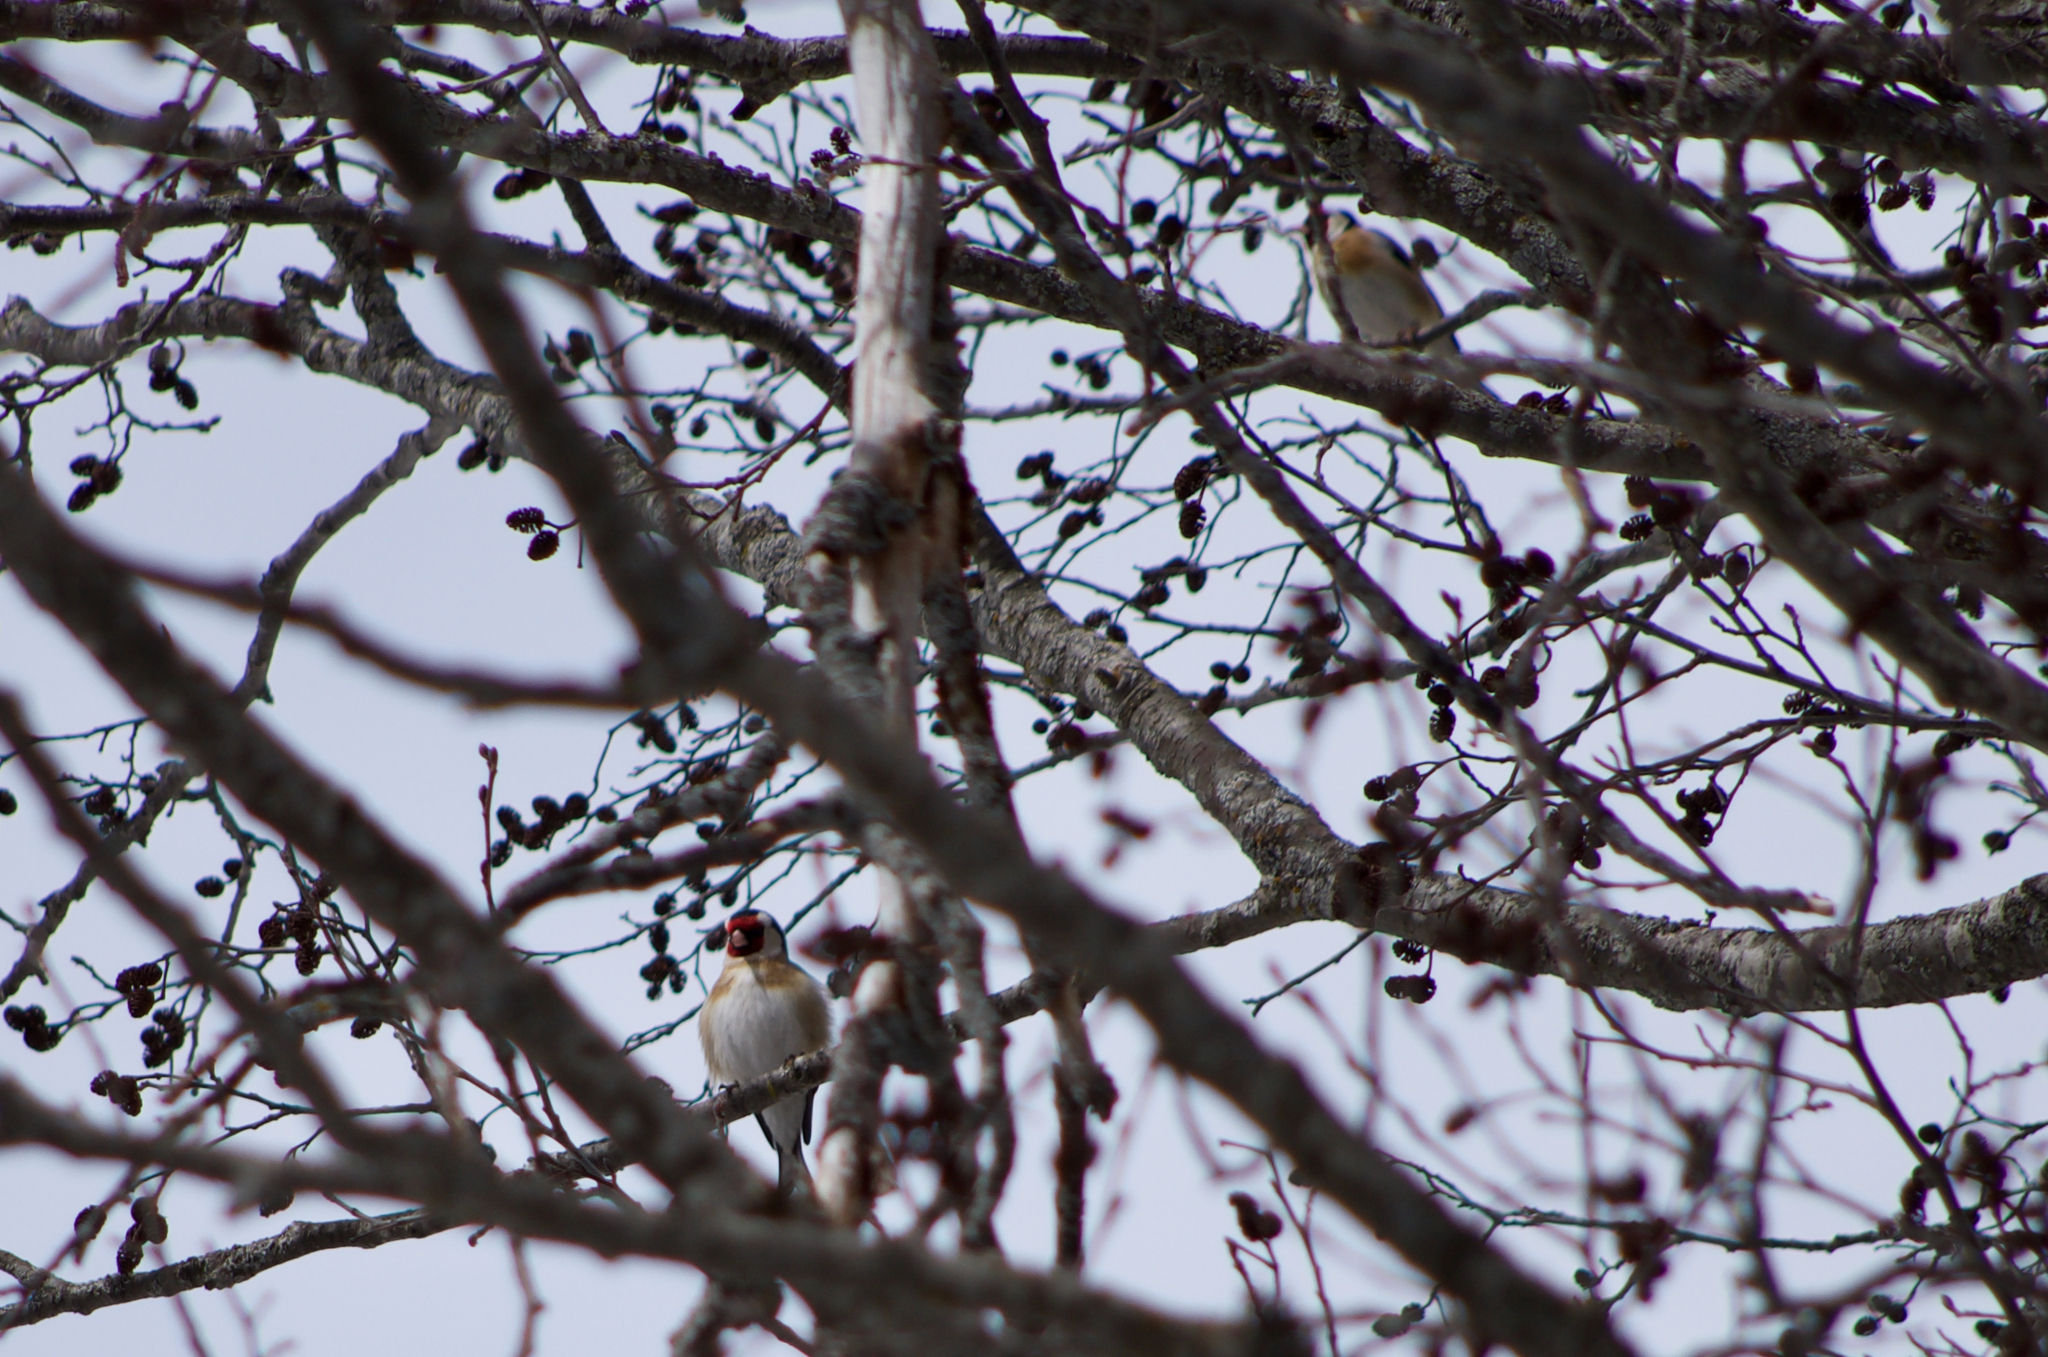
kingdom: Animalia
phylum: Chordata
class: Aves
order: Passeriformes
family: Fringillidae
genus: Carduelis
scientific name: Carduelis carduelis
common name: European goldfinch
